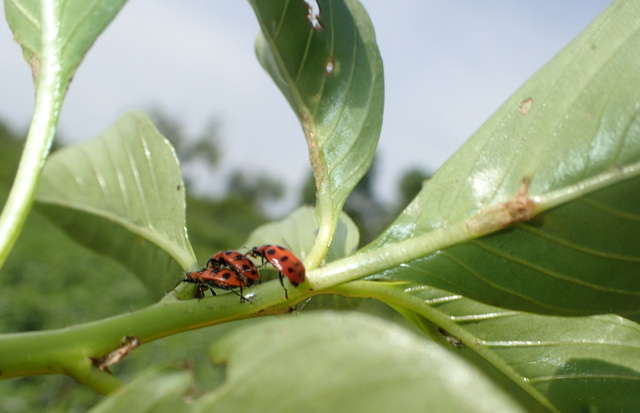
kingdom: Animalia
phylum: Arthropoda
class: Insecta
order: Coleoptera
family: Coccinellidae
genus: Coleomegilla
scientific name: Coleomegilla maculata
